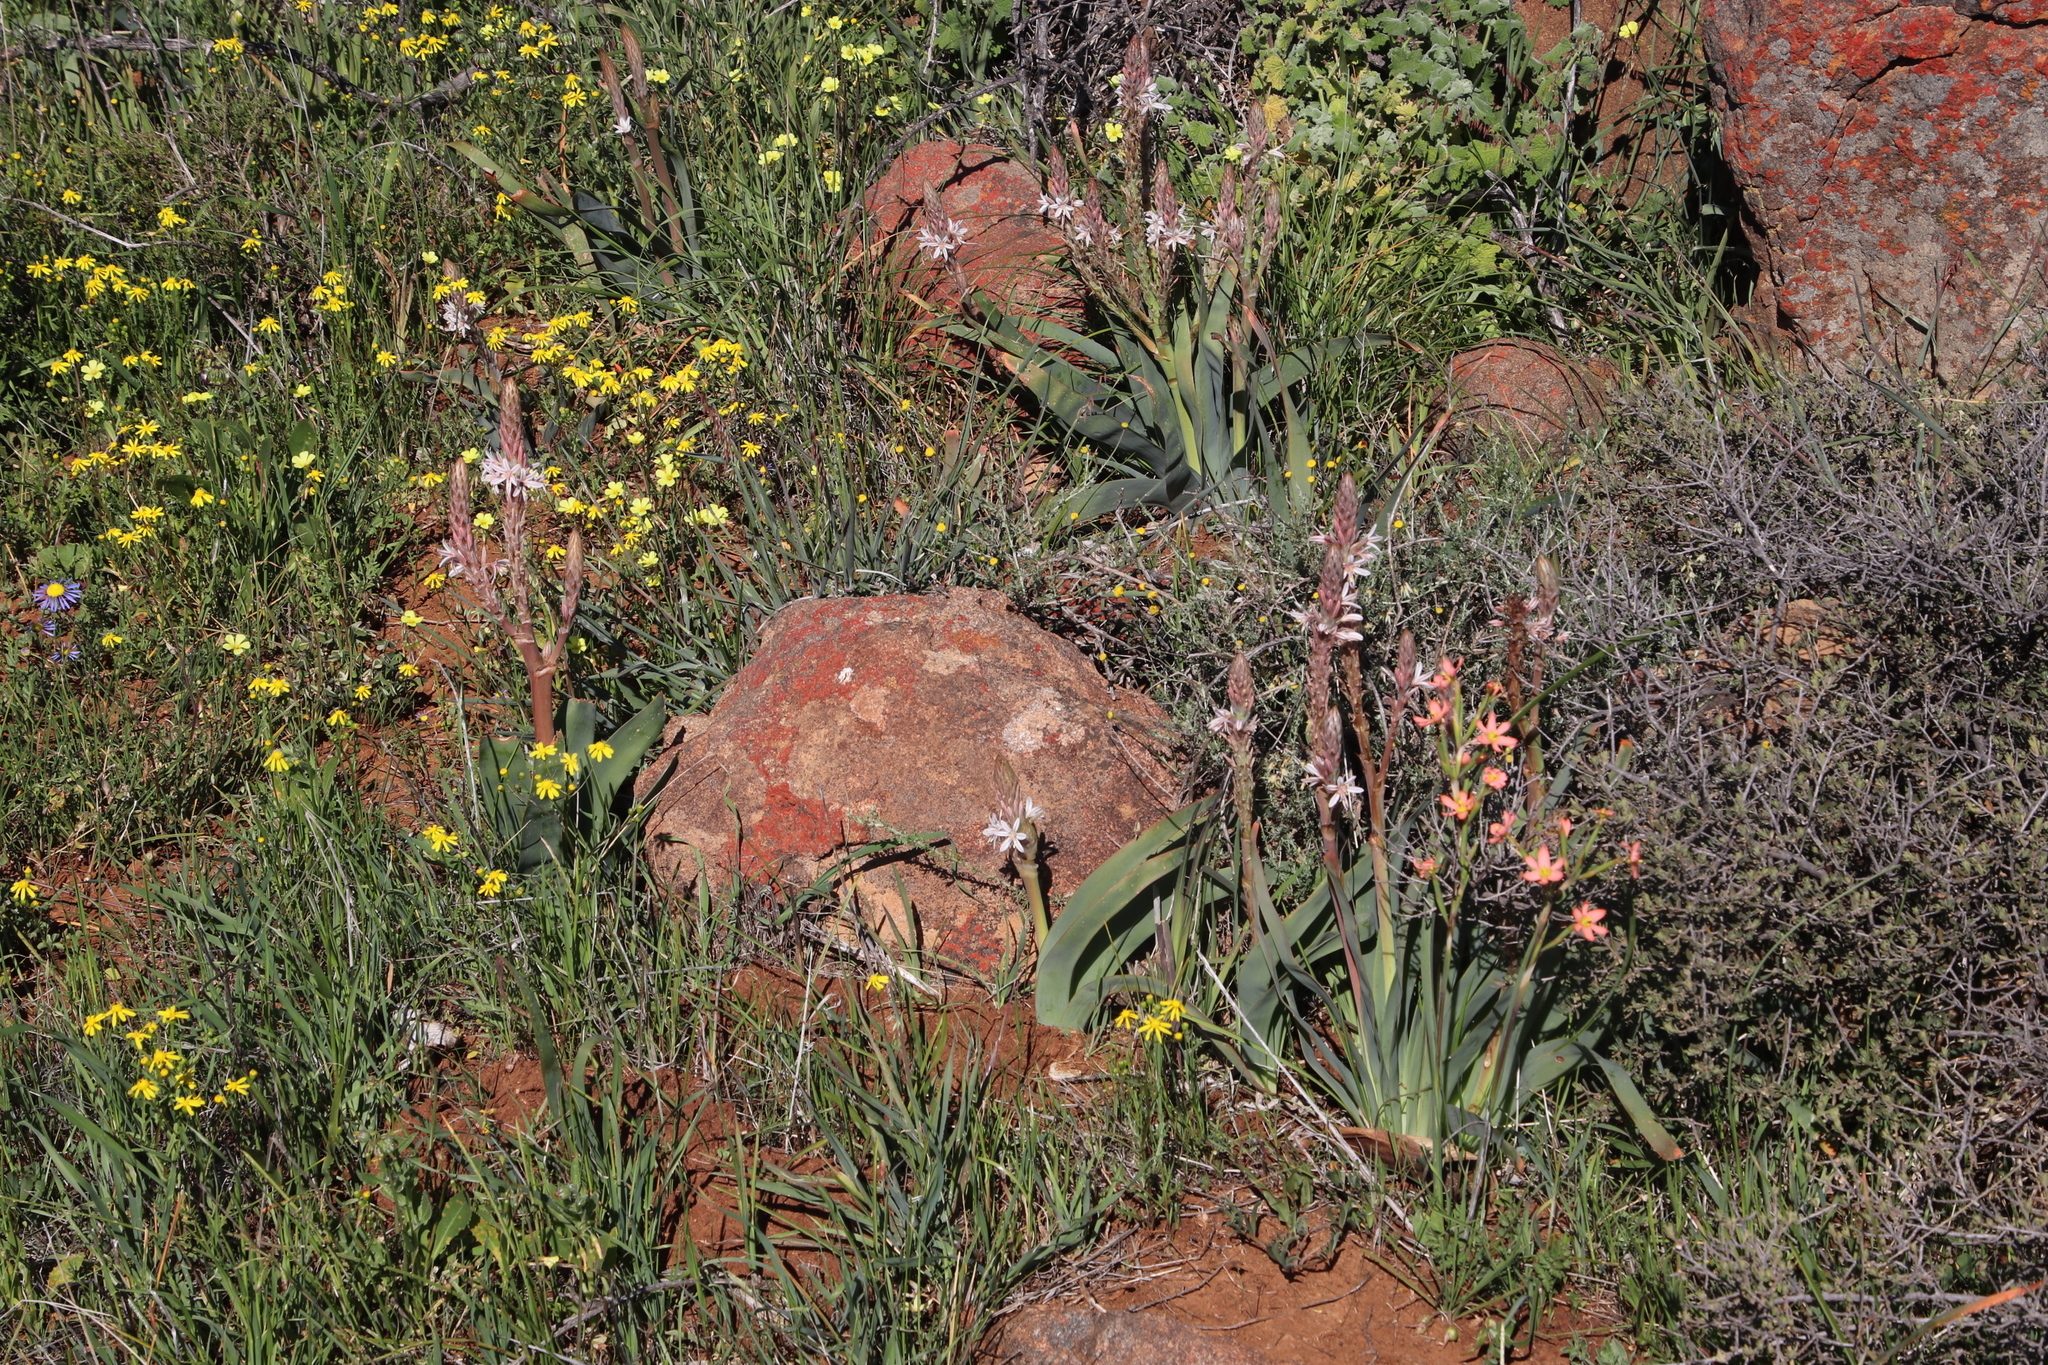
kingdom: Plantae
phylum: Tracheophyta
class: Liliopsida
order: Asparagales
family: Asphodelaceae
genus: Trachyandra
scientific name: Trachyandra falcata
